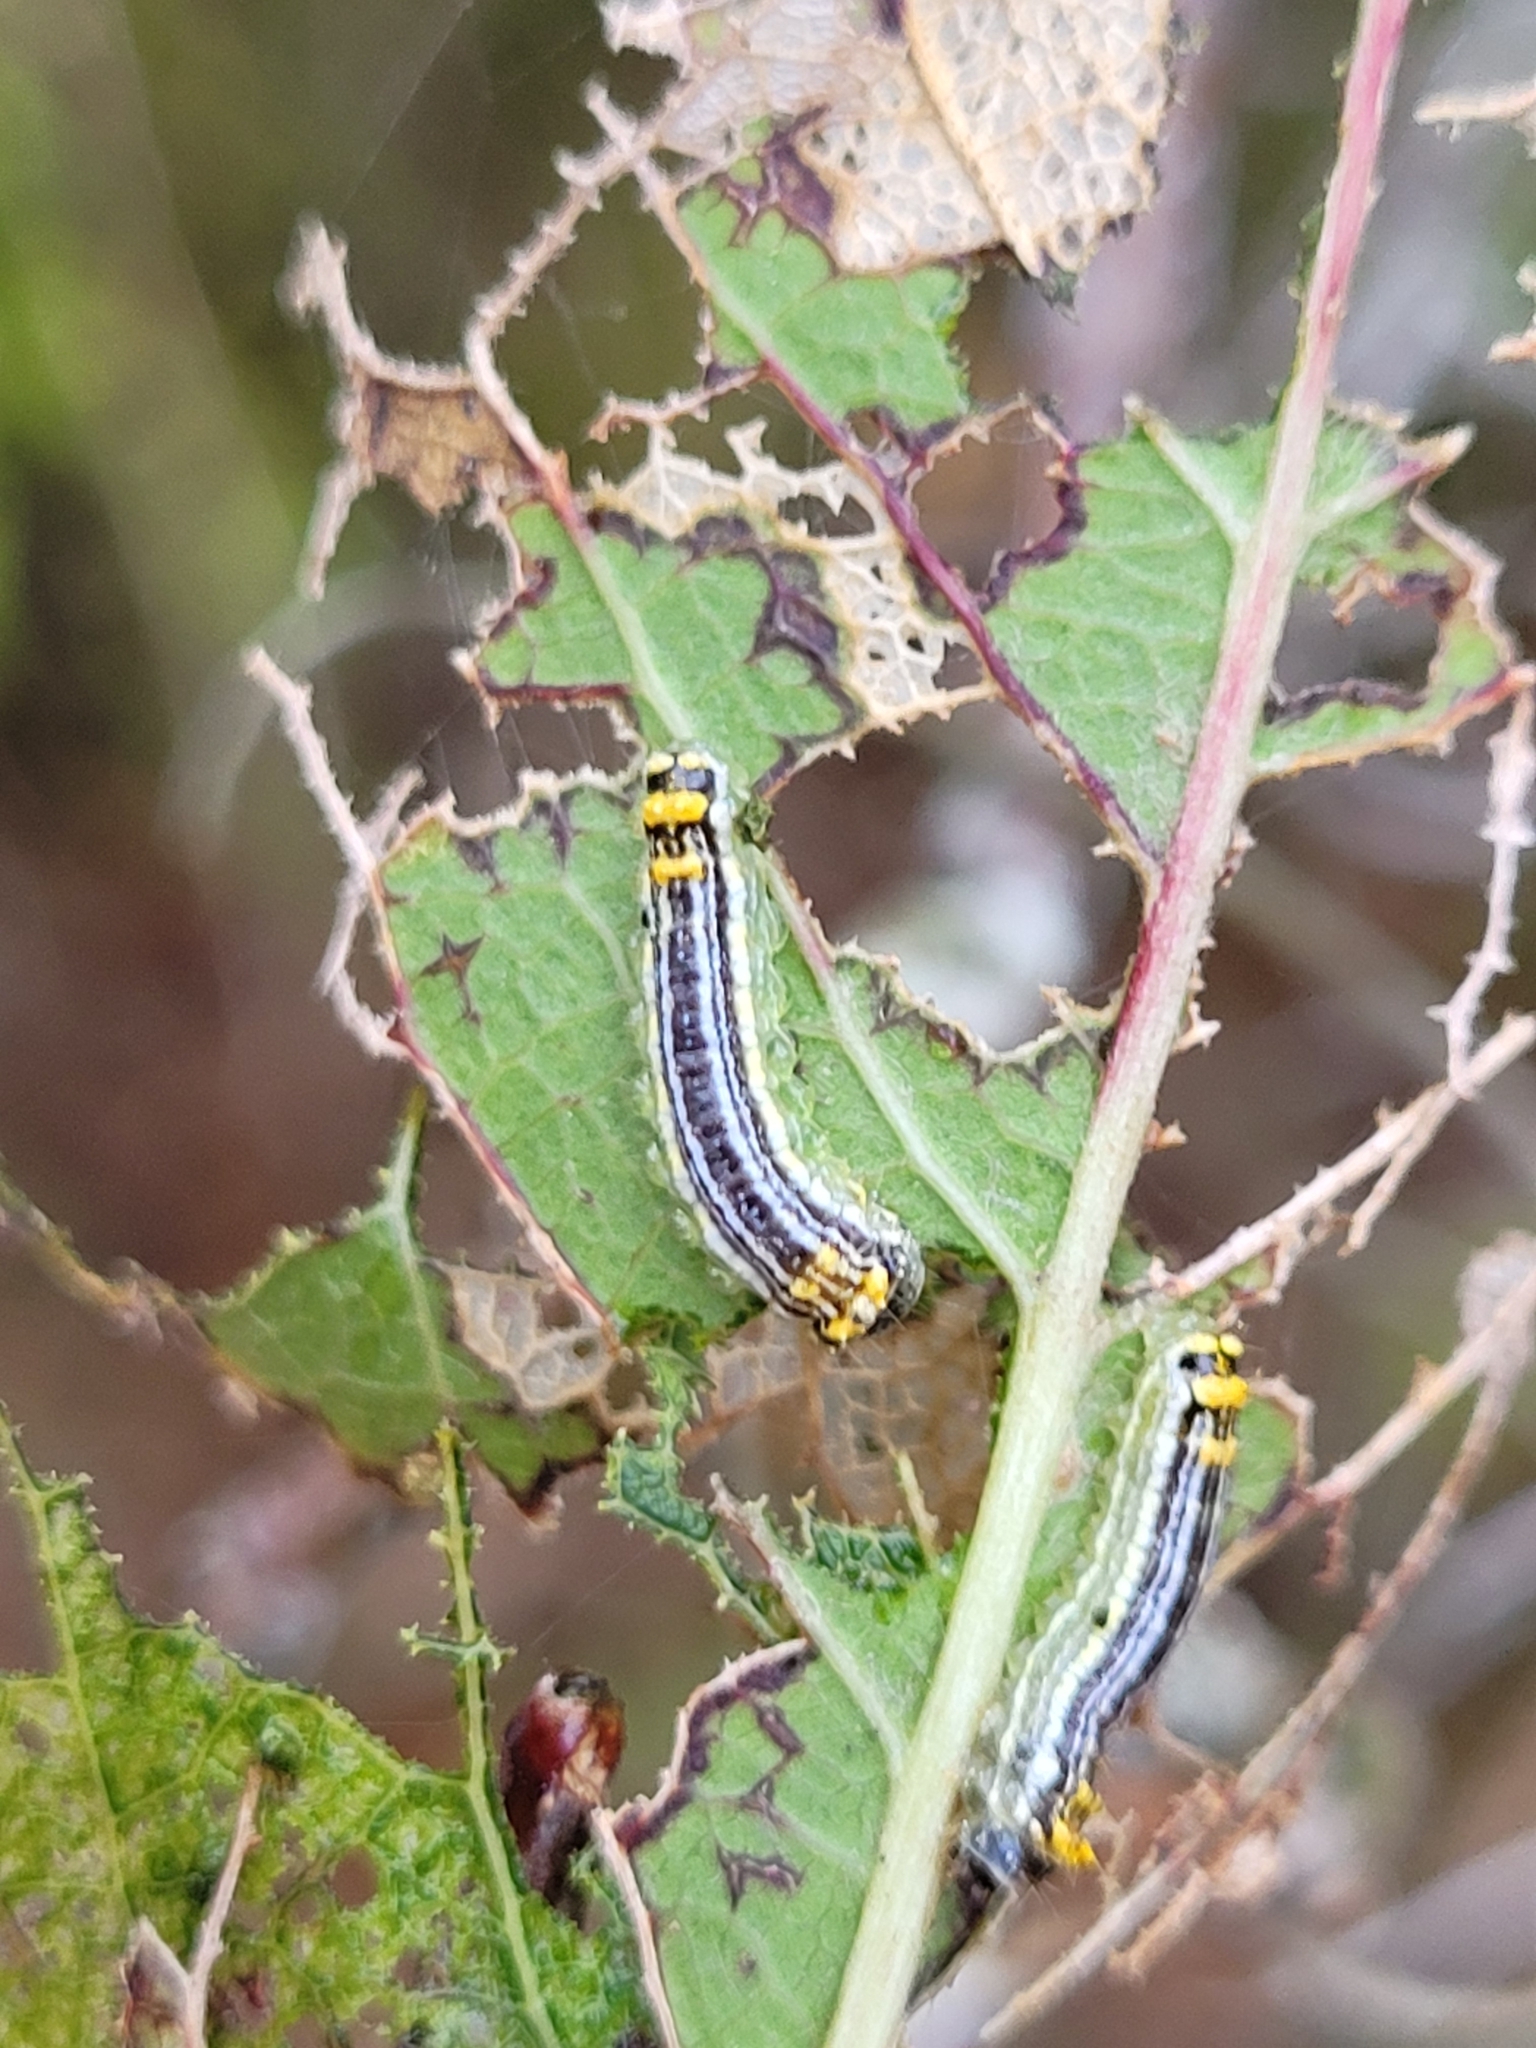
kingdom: Animalia
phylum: Arthropoda
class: Insecta
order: Lepidoptera
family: Lacturidae
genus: Lactura
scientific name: Lactura
